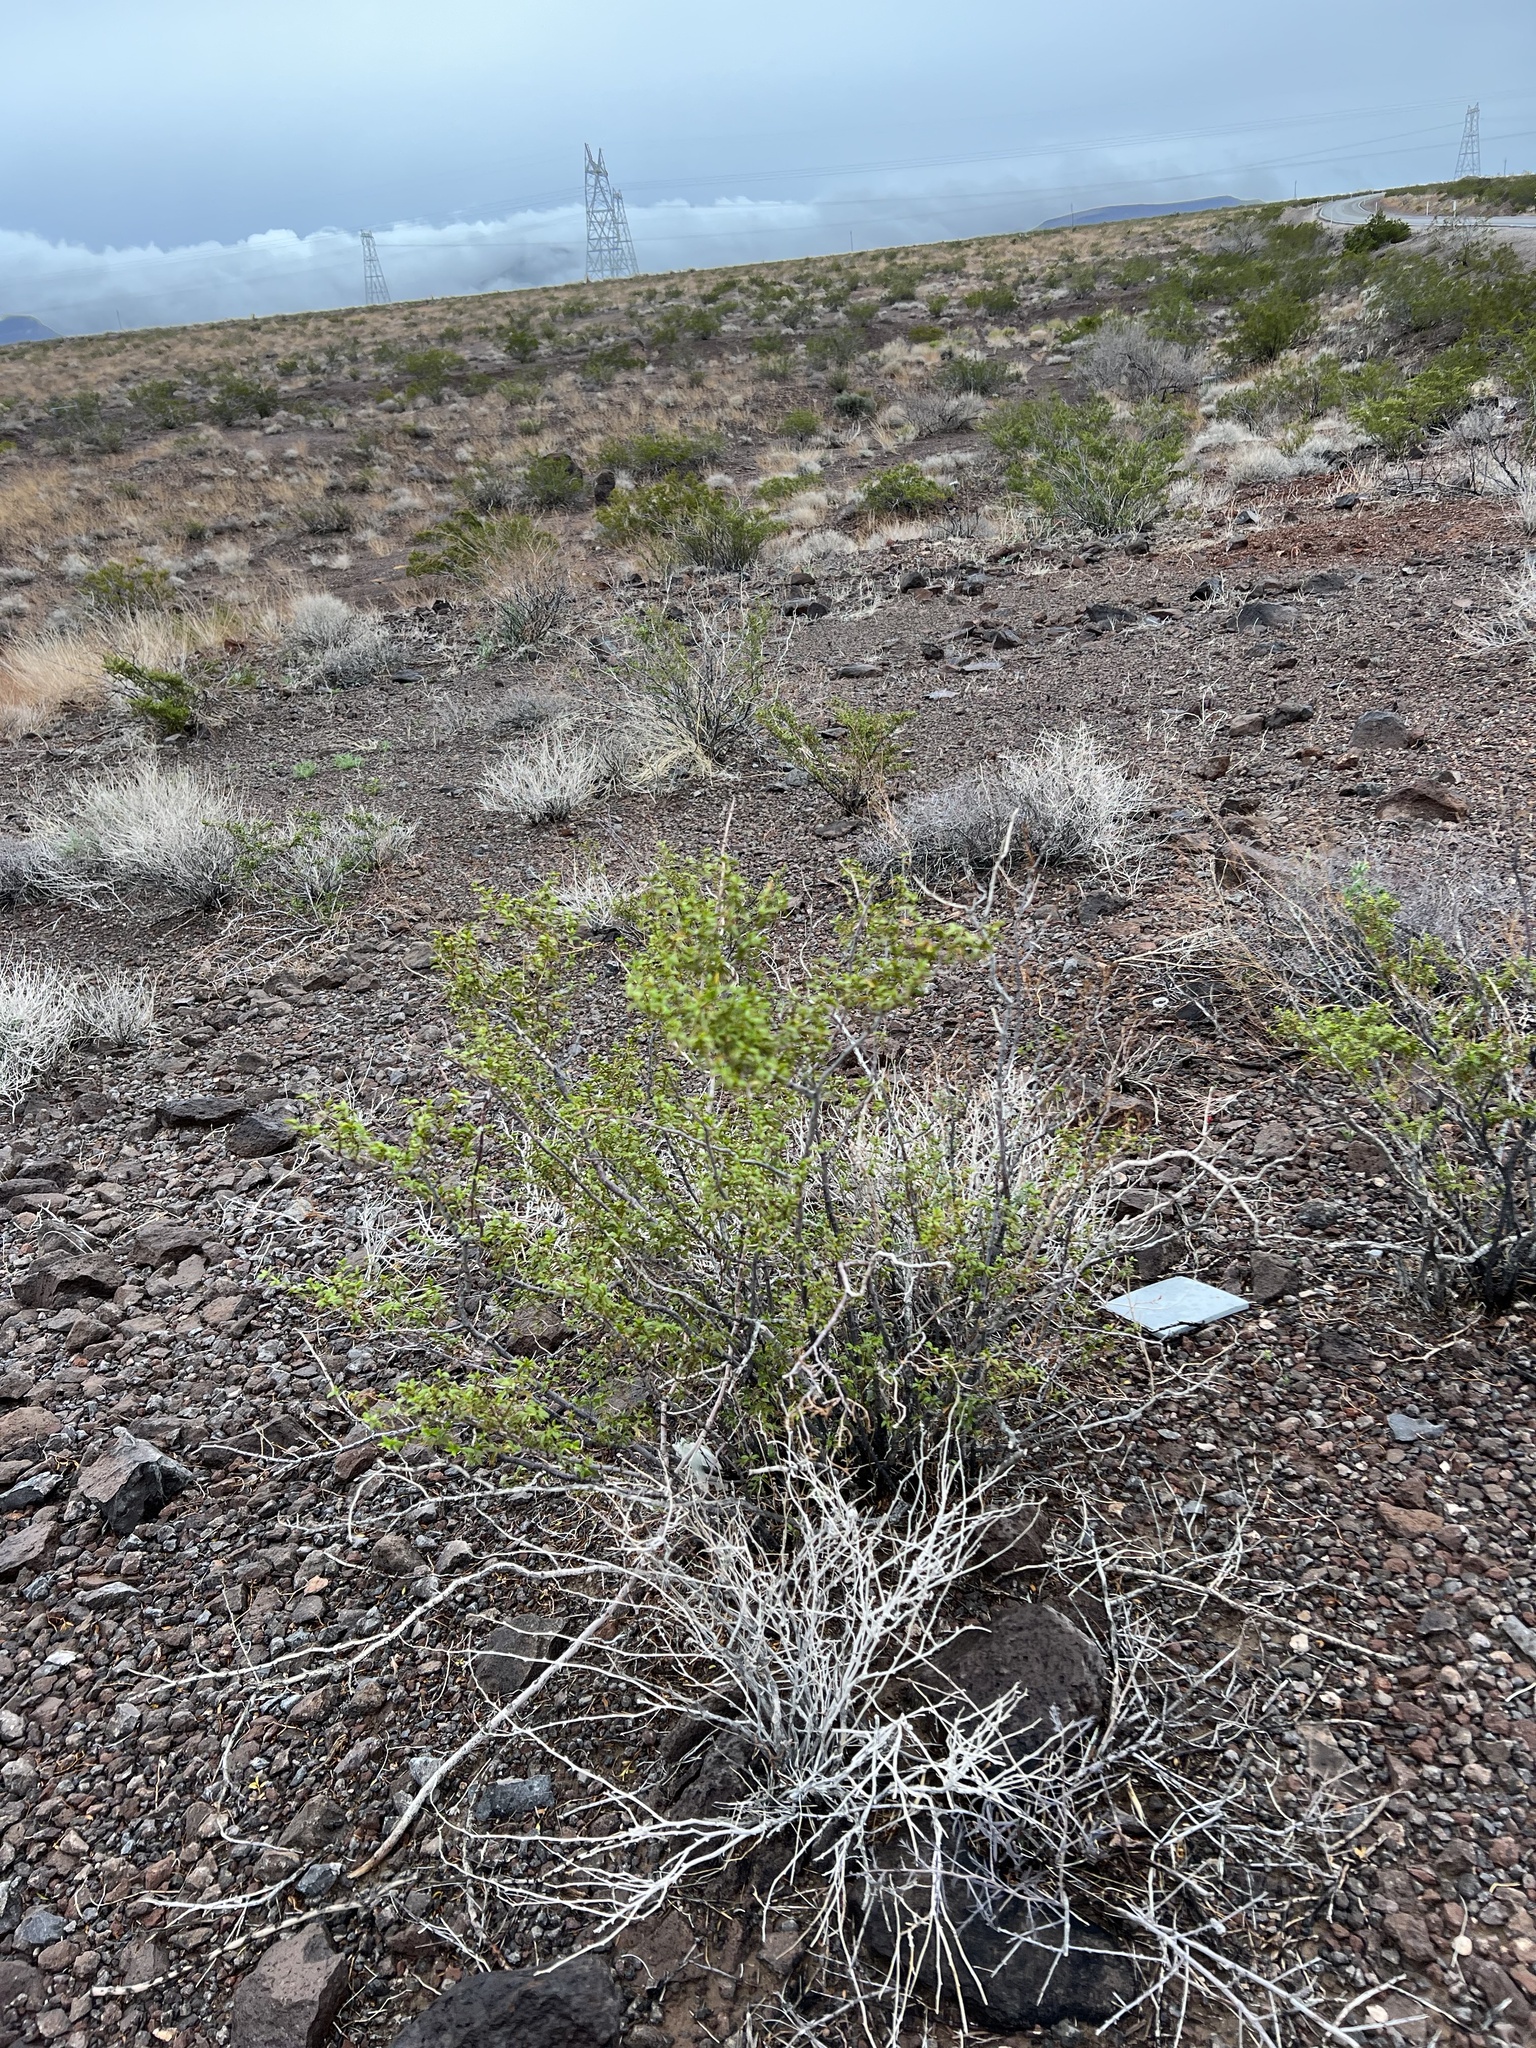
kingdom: Plantae
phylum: Tracheophyta
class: Magnoliopsida
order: Zygophyllales
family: Zygophyllaceae
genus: Larrea
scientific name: Larrea tridentata
